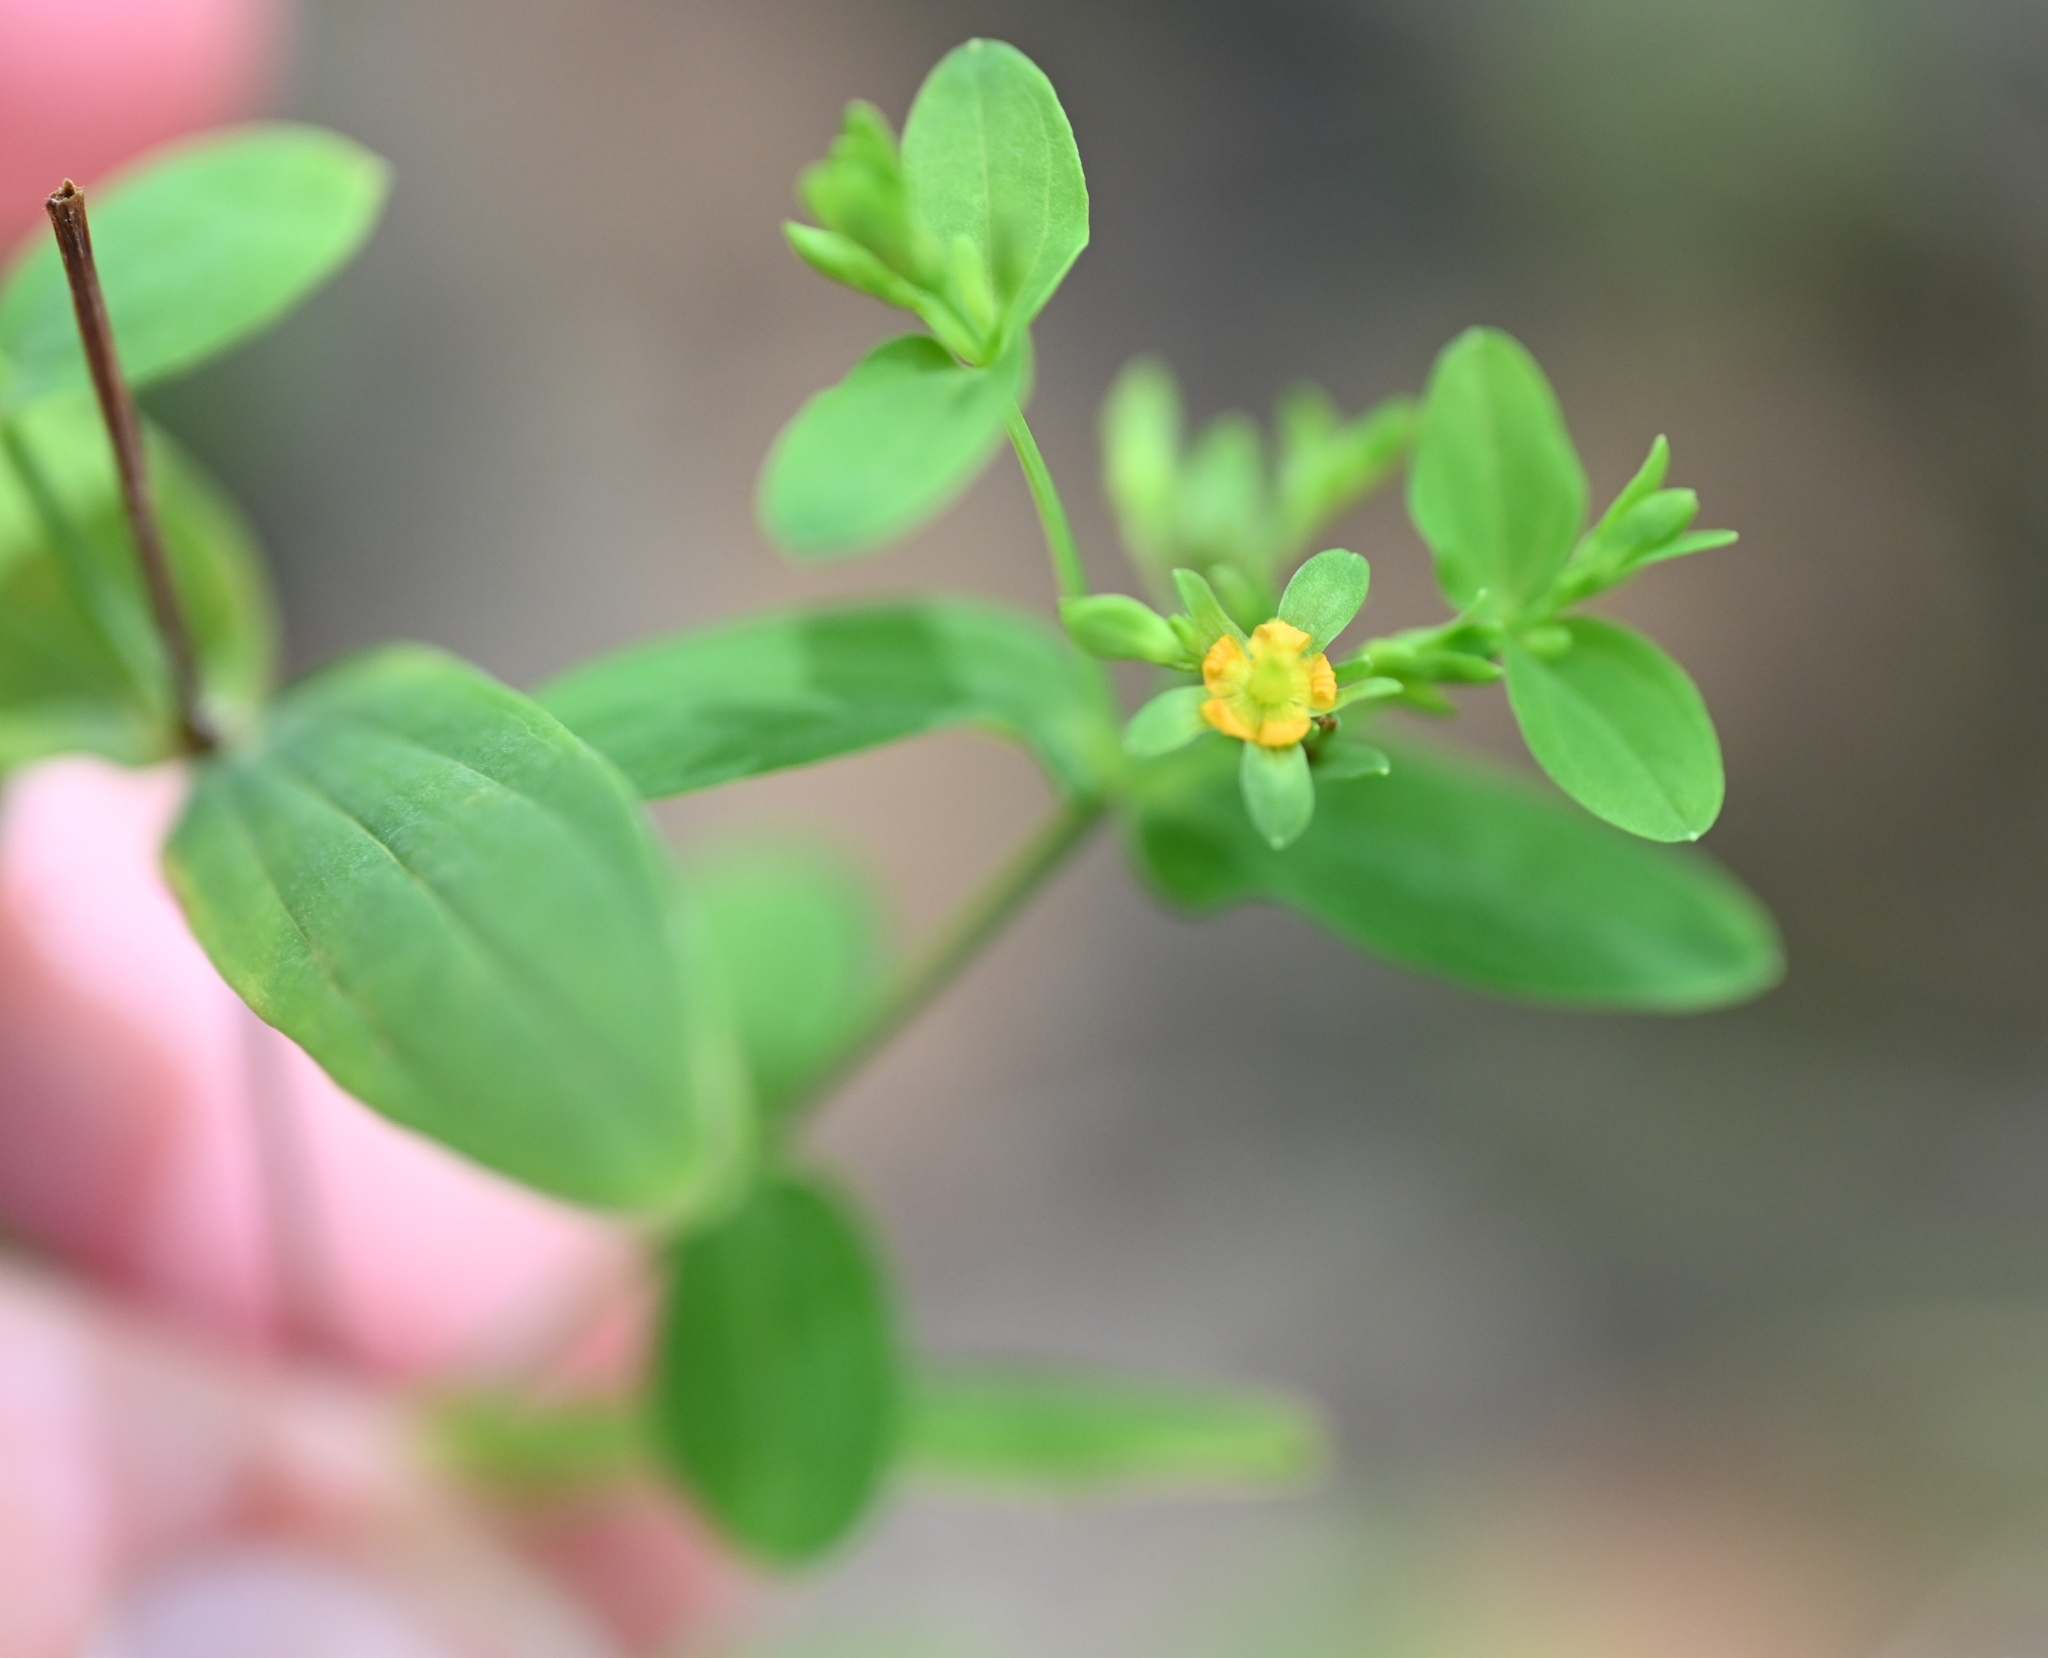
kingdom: Plantae
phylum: Tracheophyta
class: Magnoliopsida
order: Malpighiales
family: Hypericaceae
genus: Hypericum
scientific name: Hypericum mutilum
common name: Dwarf st. john's-wort
